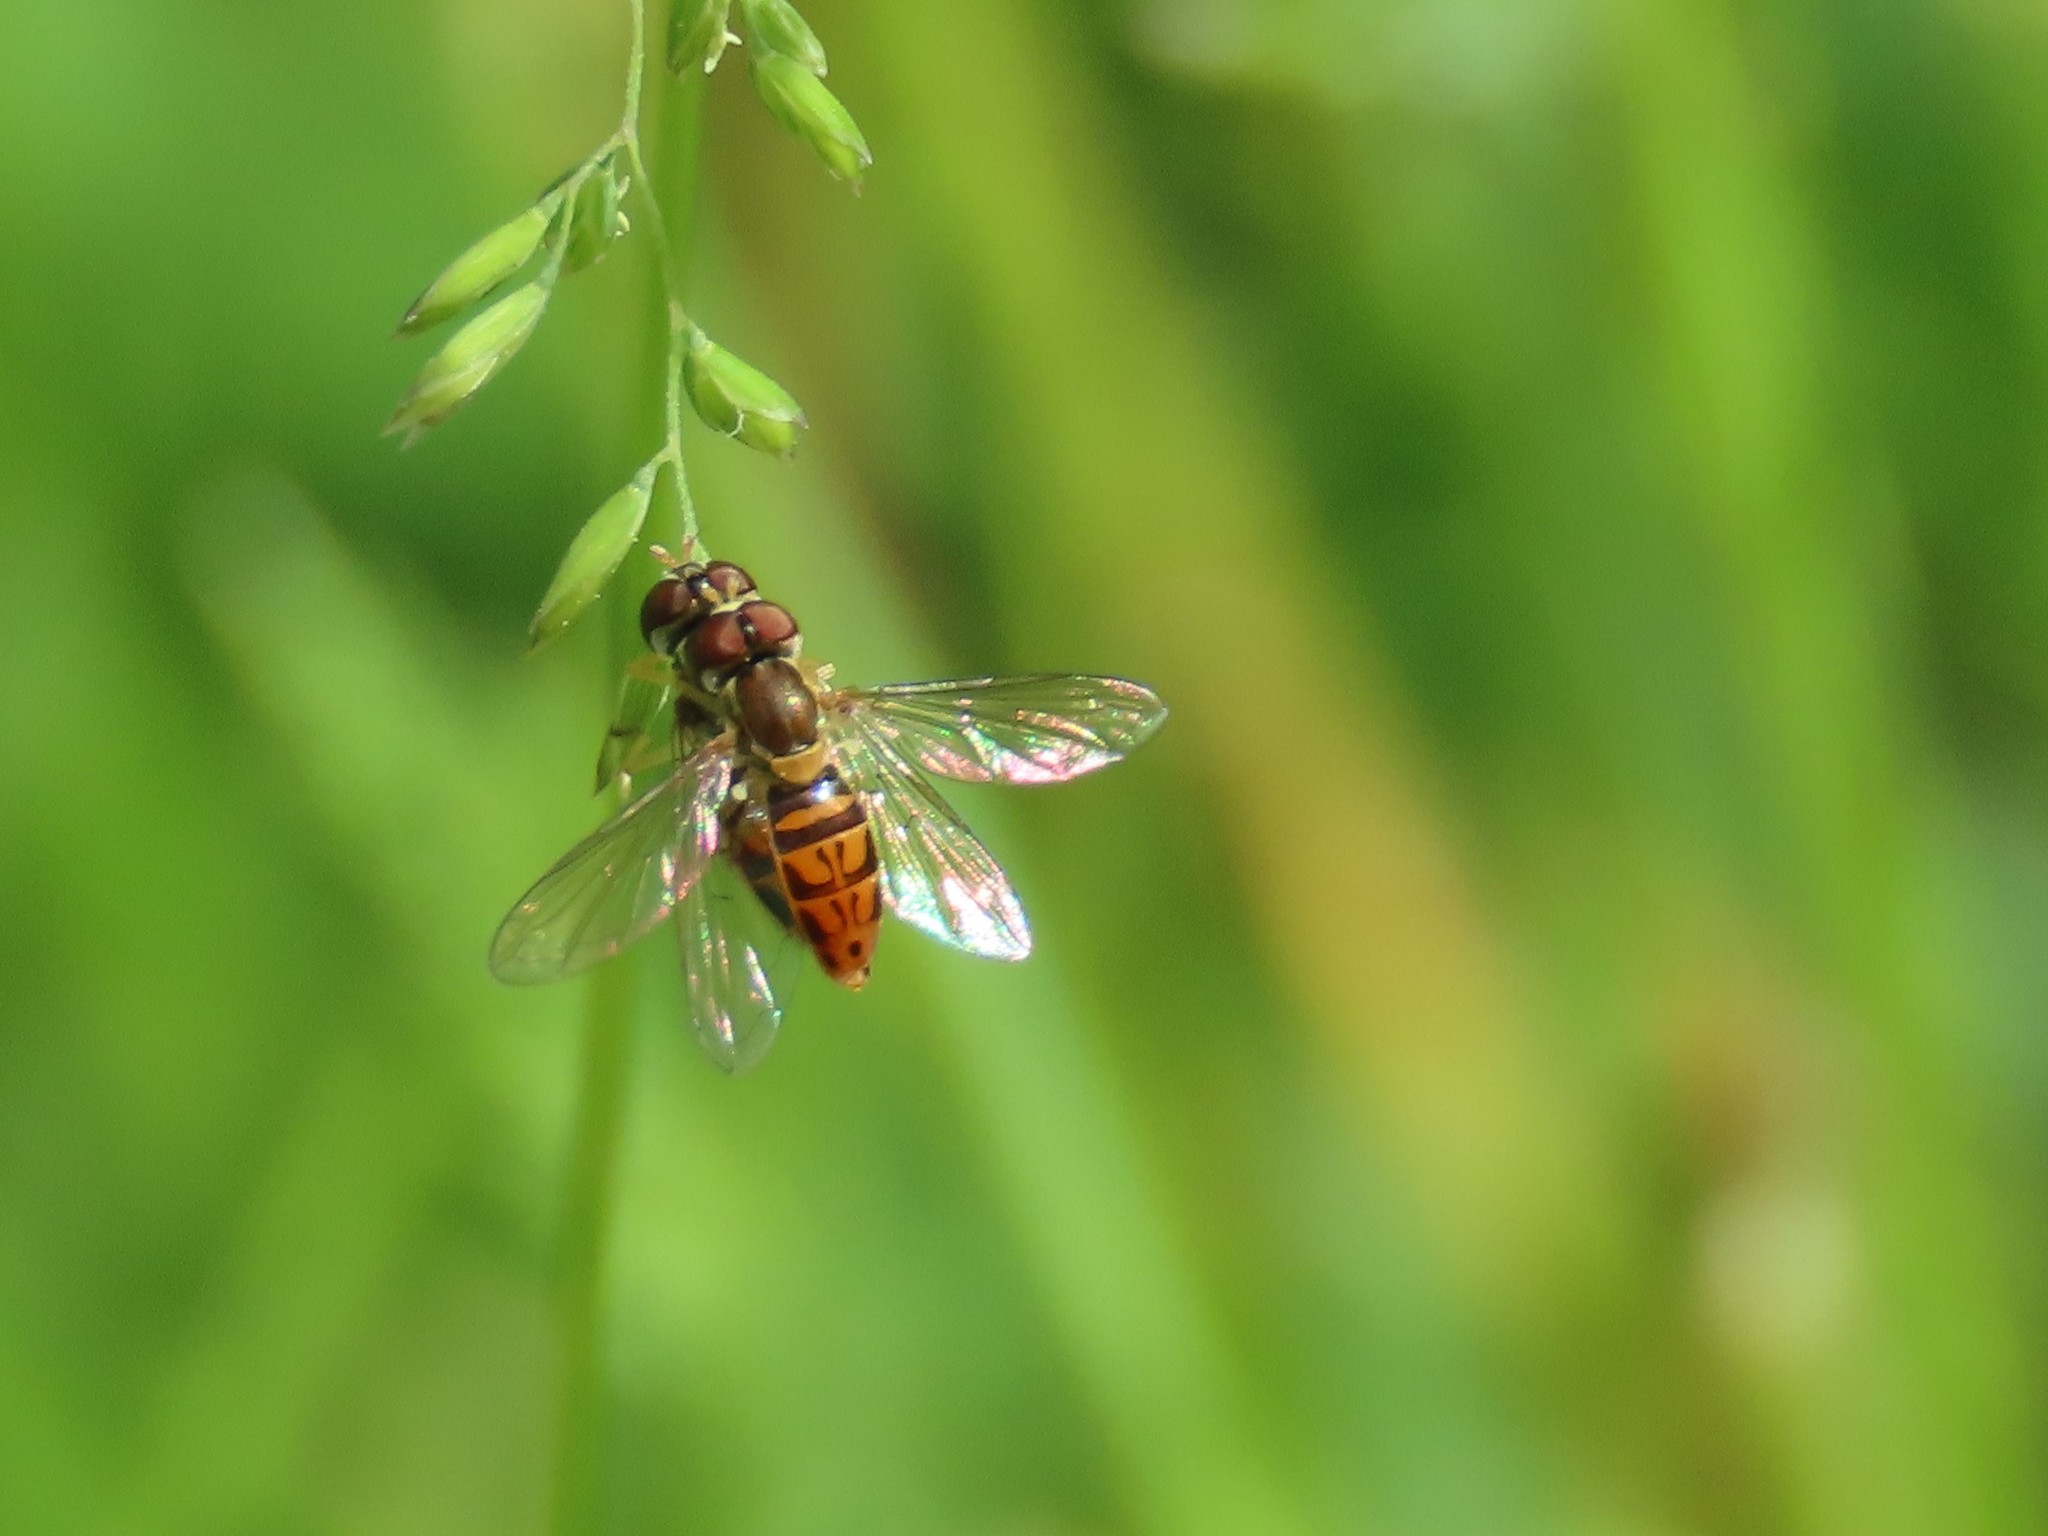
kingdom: Animalia
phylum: Arthropoda
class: Insecta
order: Diptera
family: Syrphidae
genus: Toxomerus
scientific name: Toxomerus marginatus
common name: Syrphid fly
